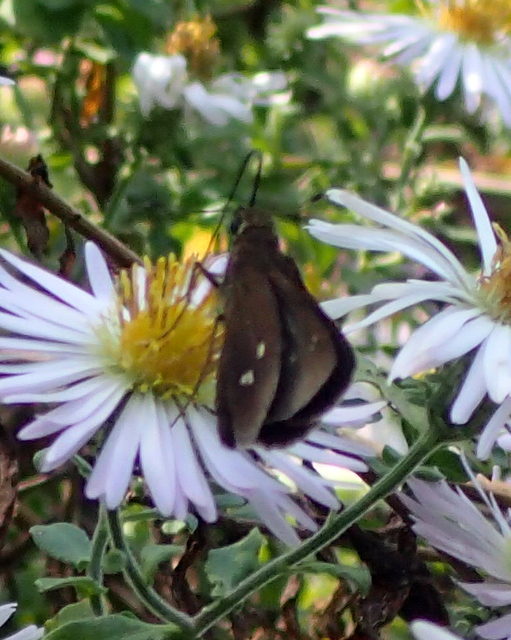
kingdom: Animalia
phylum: Arthropoda
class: Insecta
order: Lepidoptera
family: Hesperiidae
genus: Oligoria
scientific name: Oligoria maculata
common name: Twin-spot skipper
